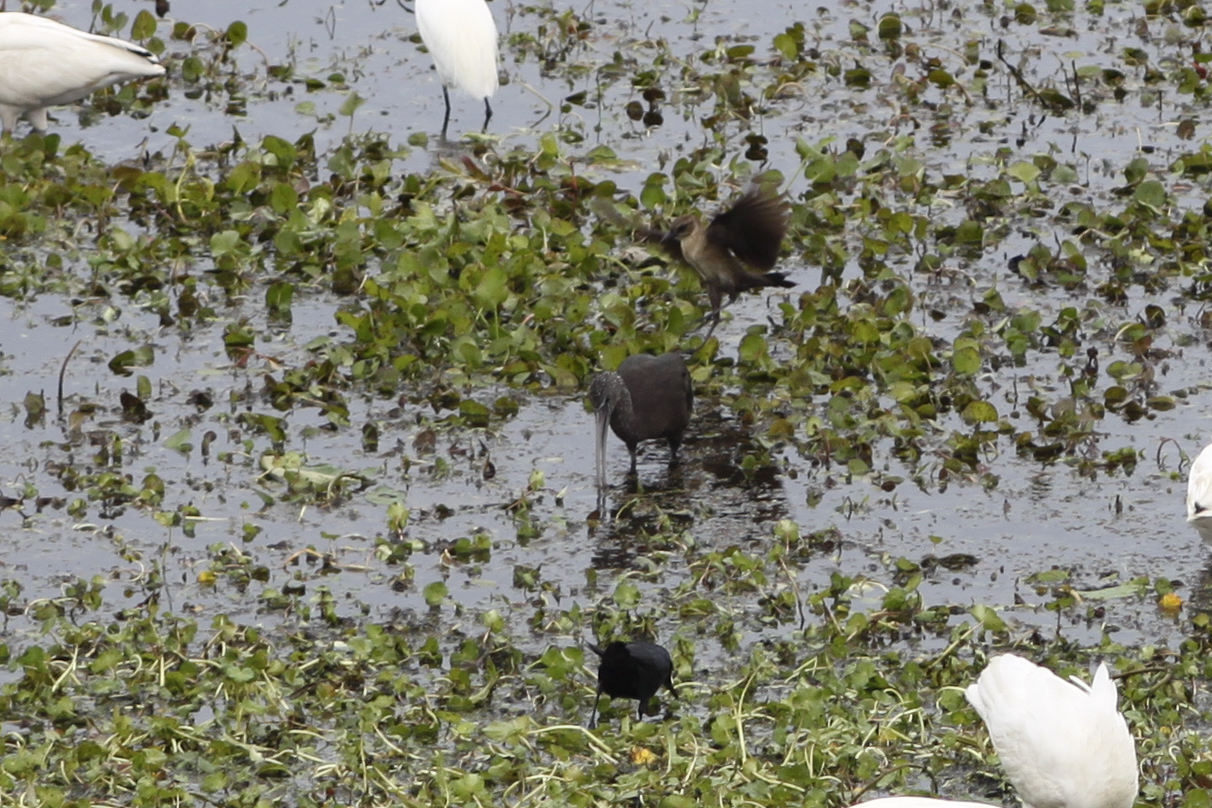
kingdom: Animalia
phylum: Chordata
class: Aves
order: Pelecaniformes
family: Threskiornithidae
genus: Plegadis
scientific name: Plegadis falcinellus
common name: Glossy ibis
